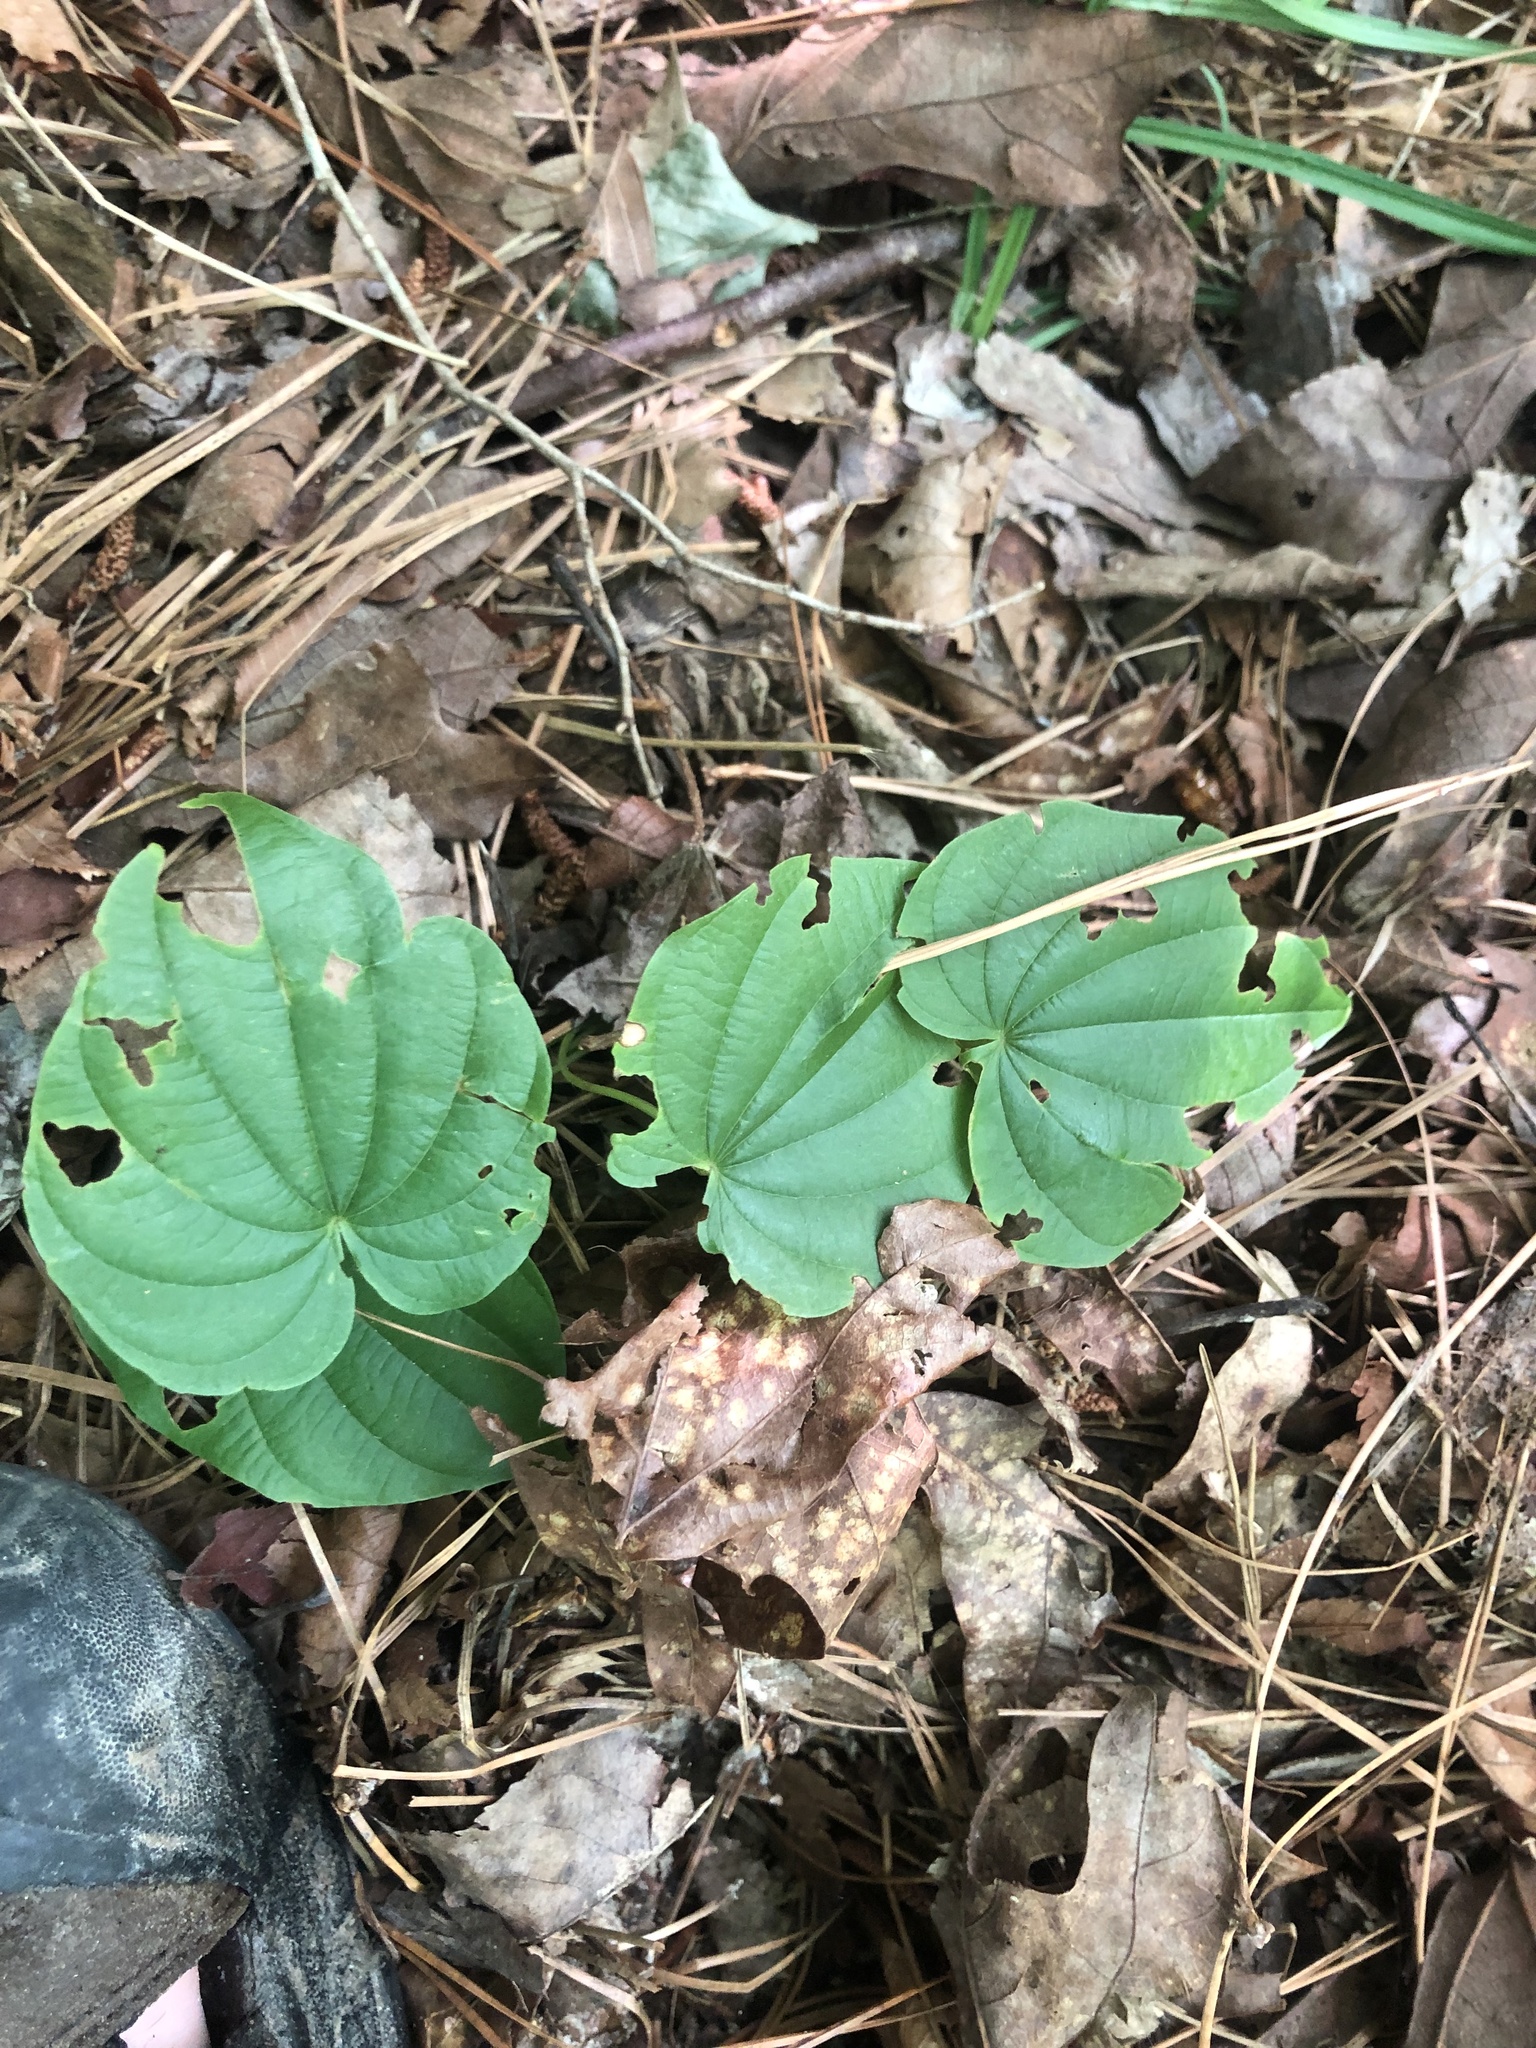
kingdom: Plantae
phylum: Tracheophyta
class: Liliopsida
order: Dioscoreales
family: Dioscoreaceae
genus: Dioscorea
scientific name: Dioscorea villosa
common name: Wild yam
